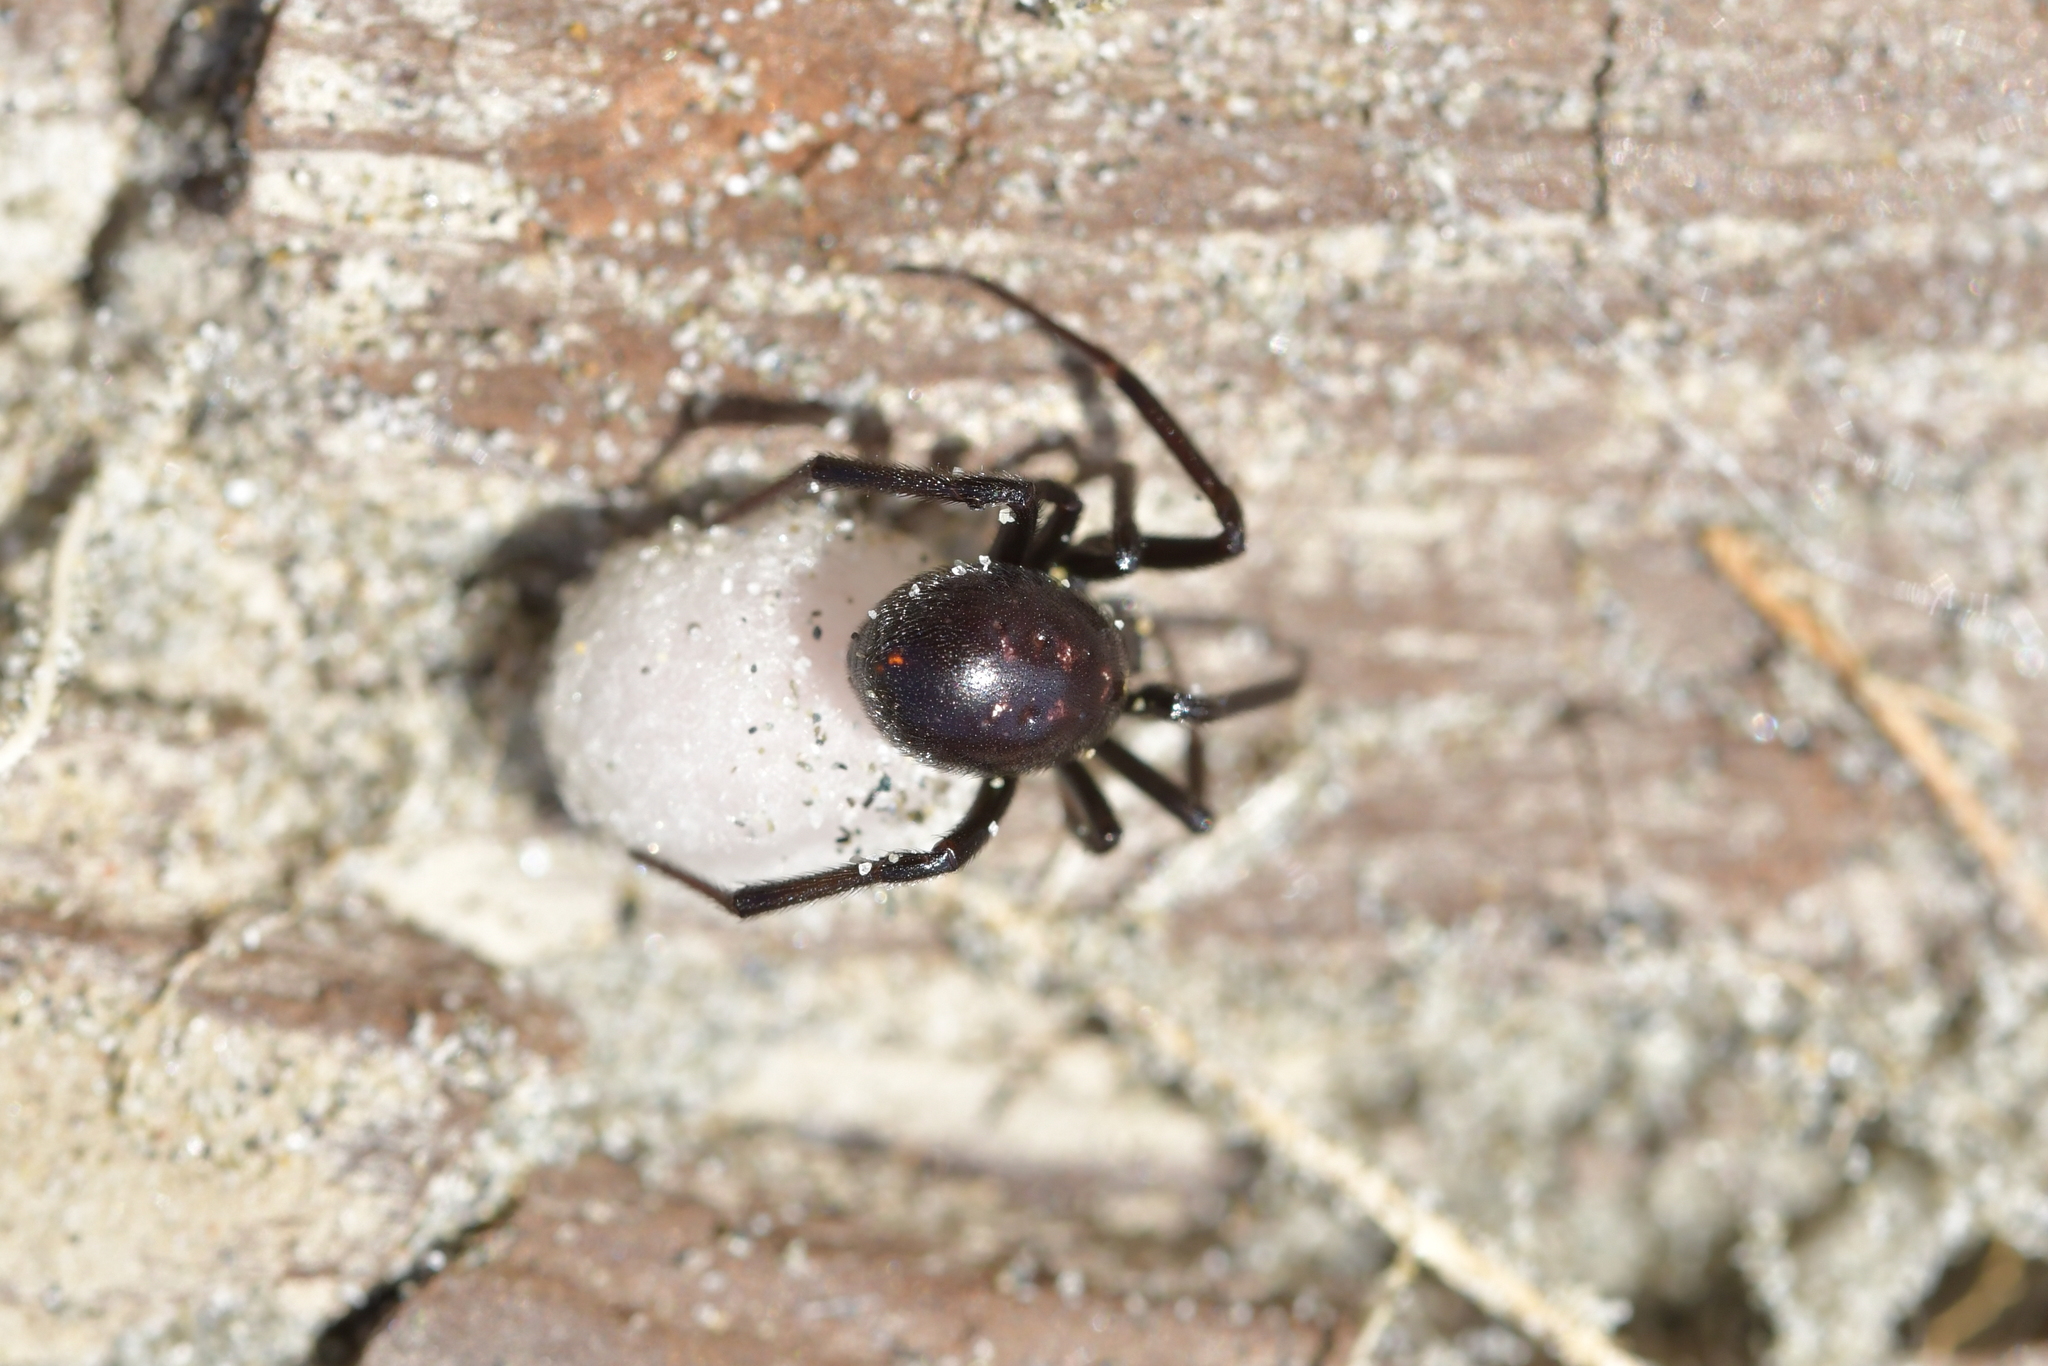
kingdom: Animalia
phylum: Arthropoda
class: Arachnida
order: Araneae
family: Theridiidae
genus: Steatoda
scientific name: Steatoda capensis
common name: Cobweb weaver
